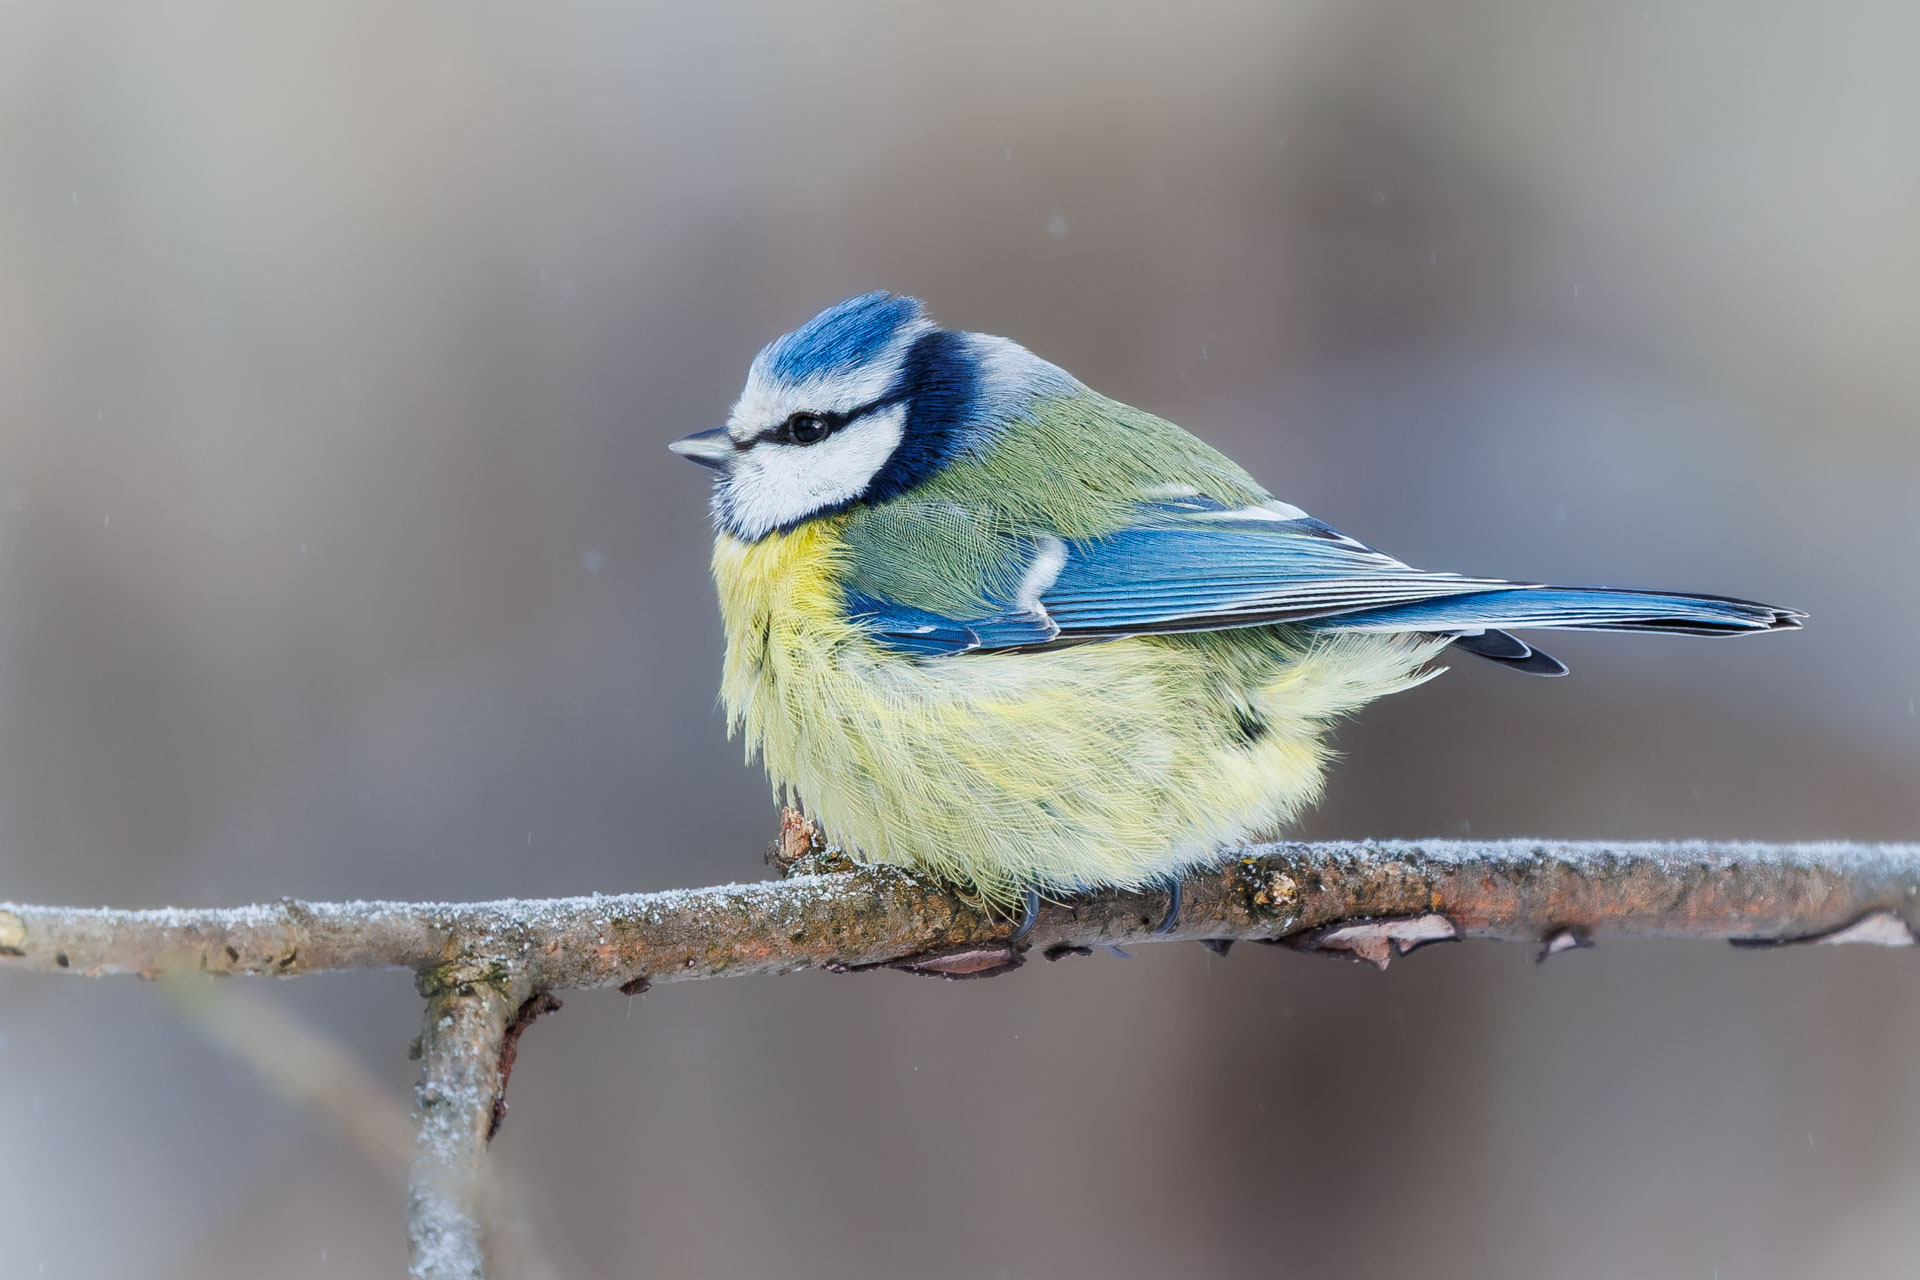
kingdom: Animalia
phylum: Chordata
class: Aves
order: Passeriformes
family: Paridae
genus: Cyanistes
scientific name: Cyanistes caeruleus
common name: Eurasian blue tit
